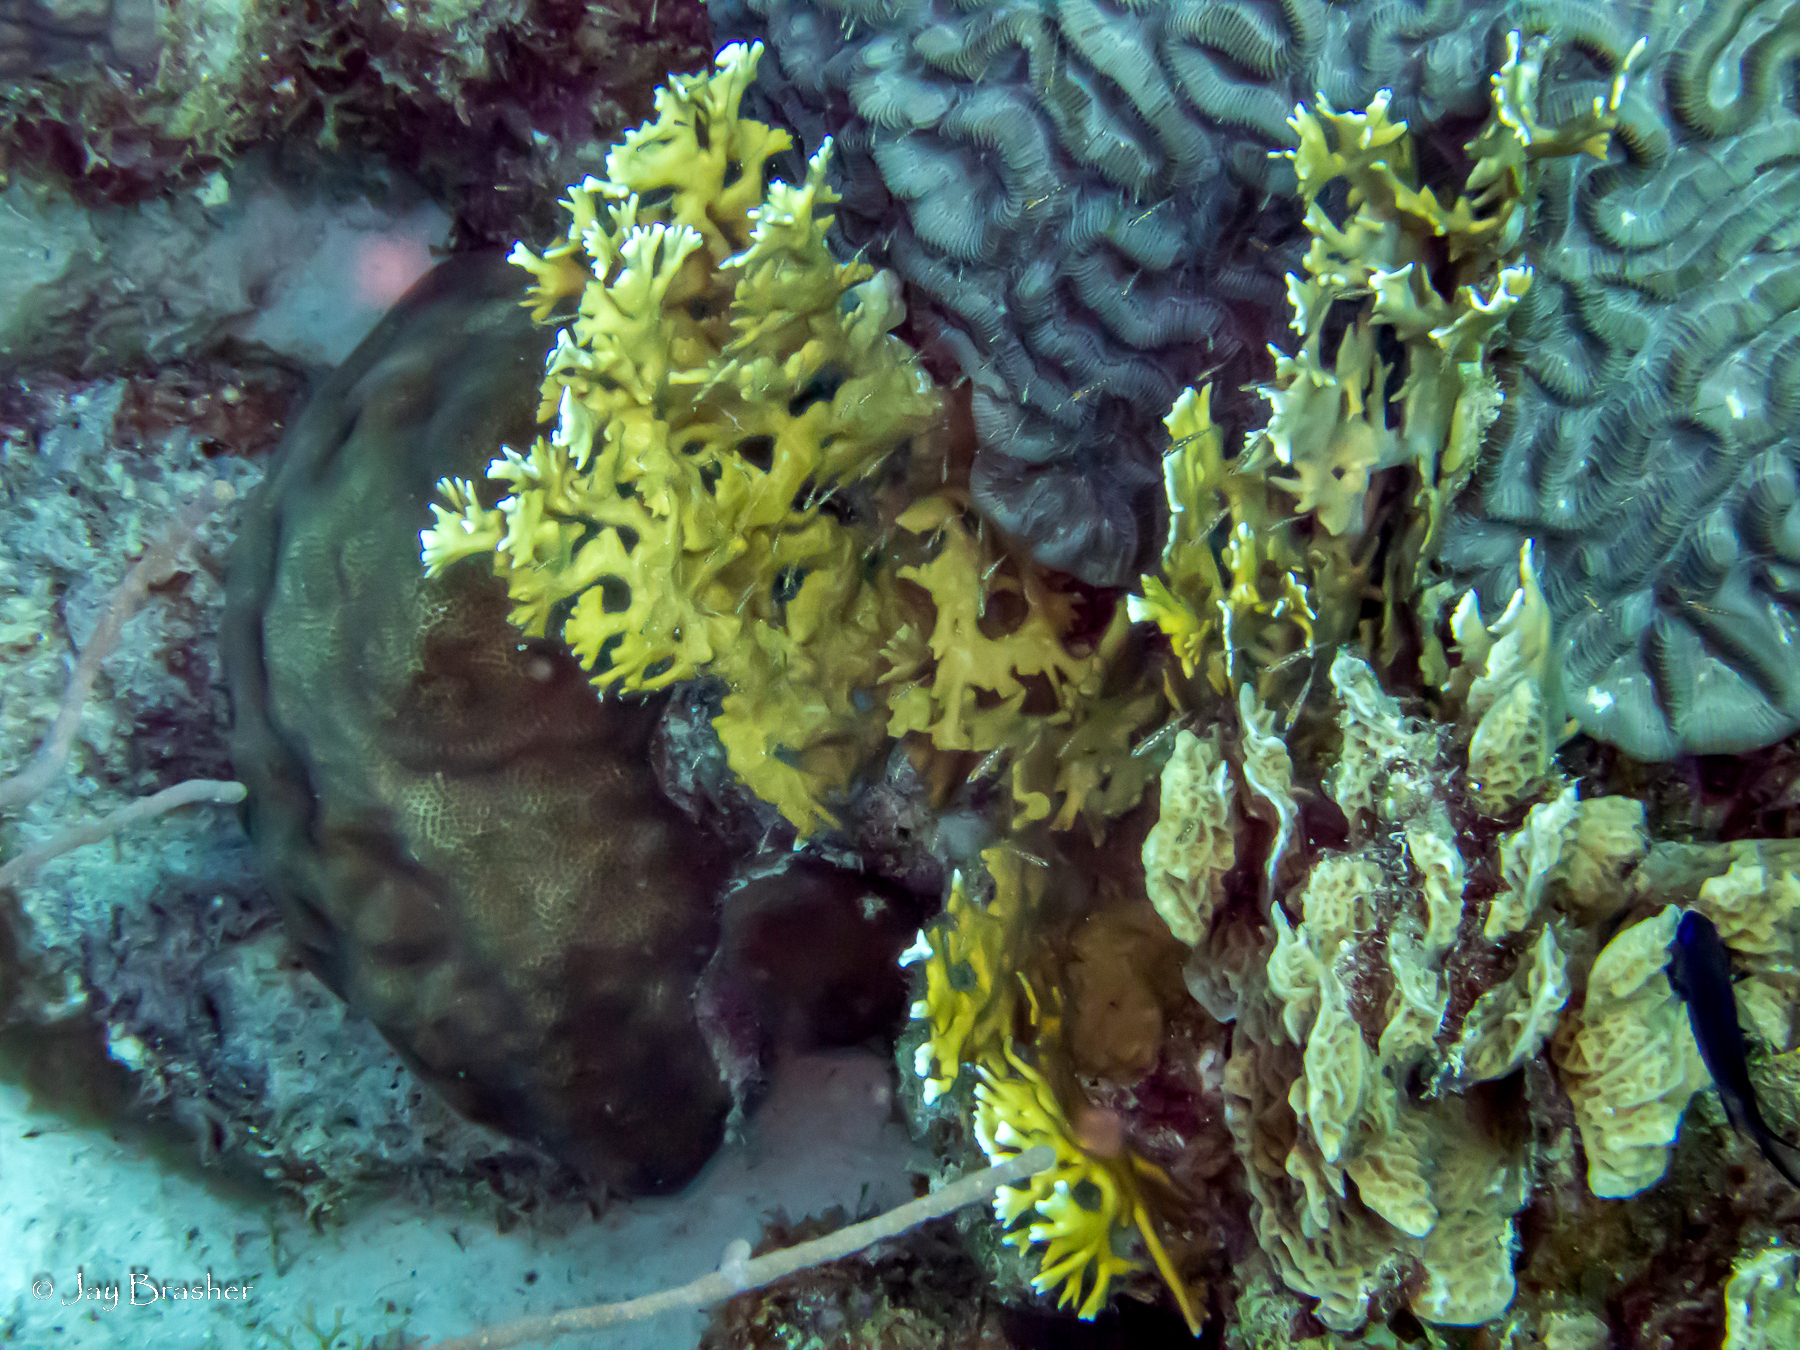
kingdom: Animalia
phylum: Cnidaria
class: Anthozoa
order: Scleractinia
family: Agariciidae
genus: Agaricia
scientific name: Agaricia agaricites
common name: Lettuce coral
